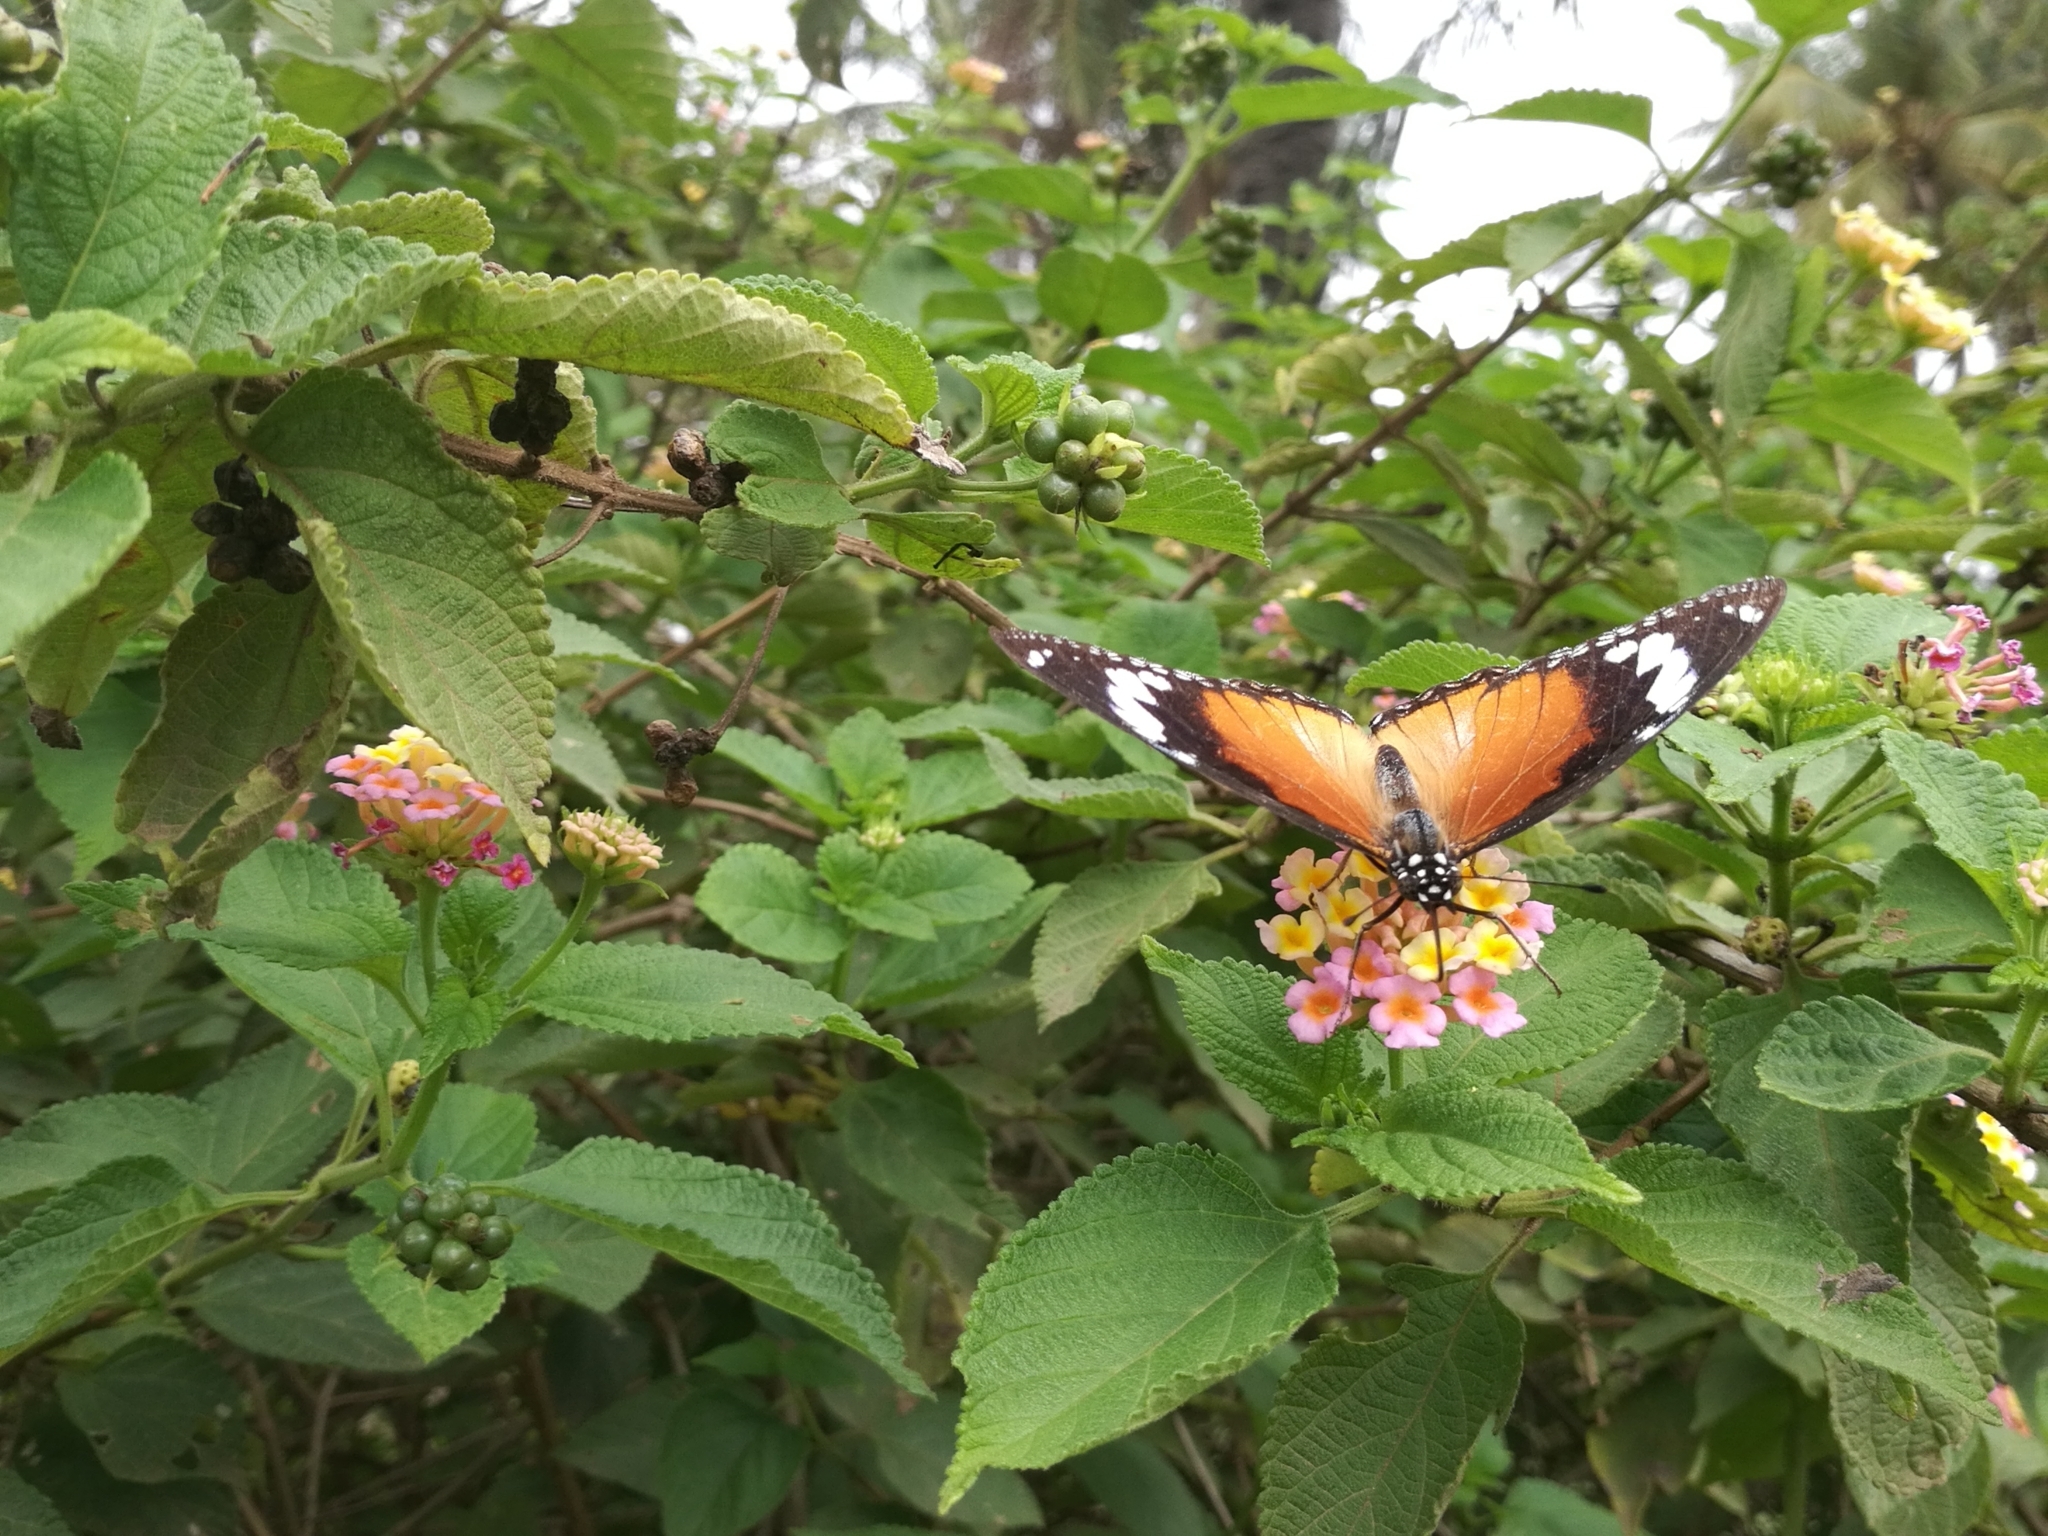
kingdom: Animalia
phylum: Arthropoda
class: Insecta
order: Lepidoptera
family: Nymphalidae
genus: Hypolimnas
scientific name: Hypolimnas misippus
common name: False plain tiger
